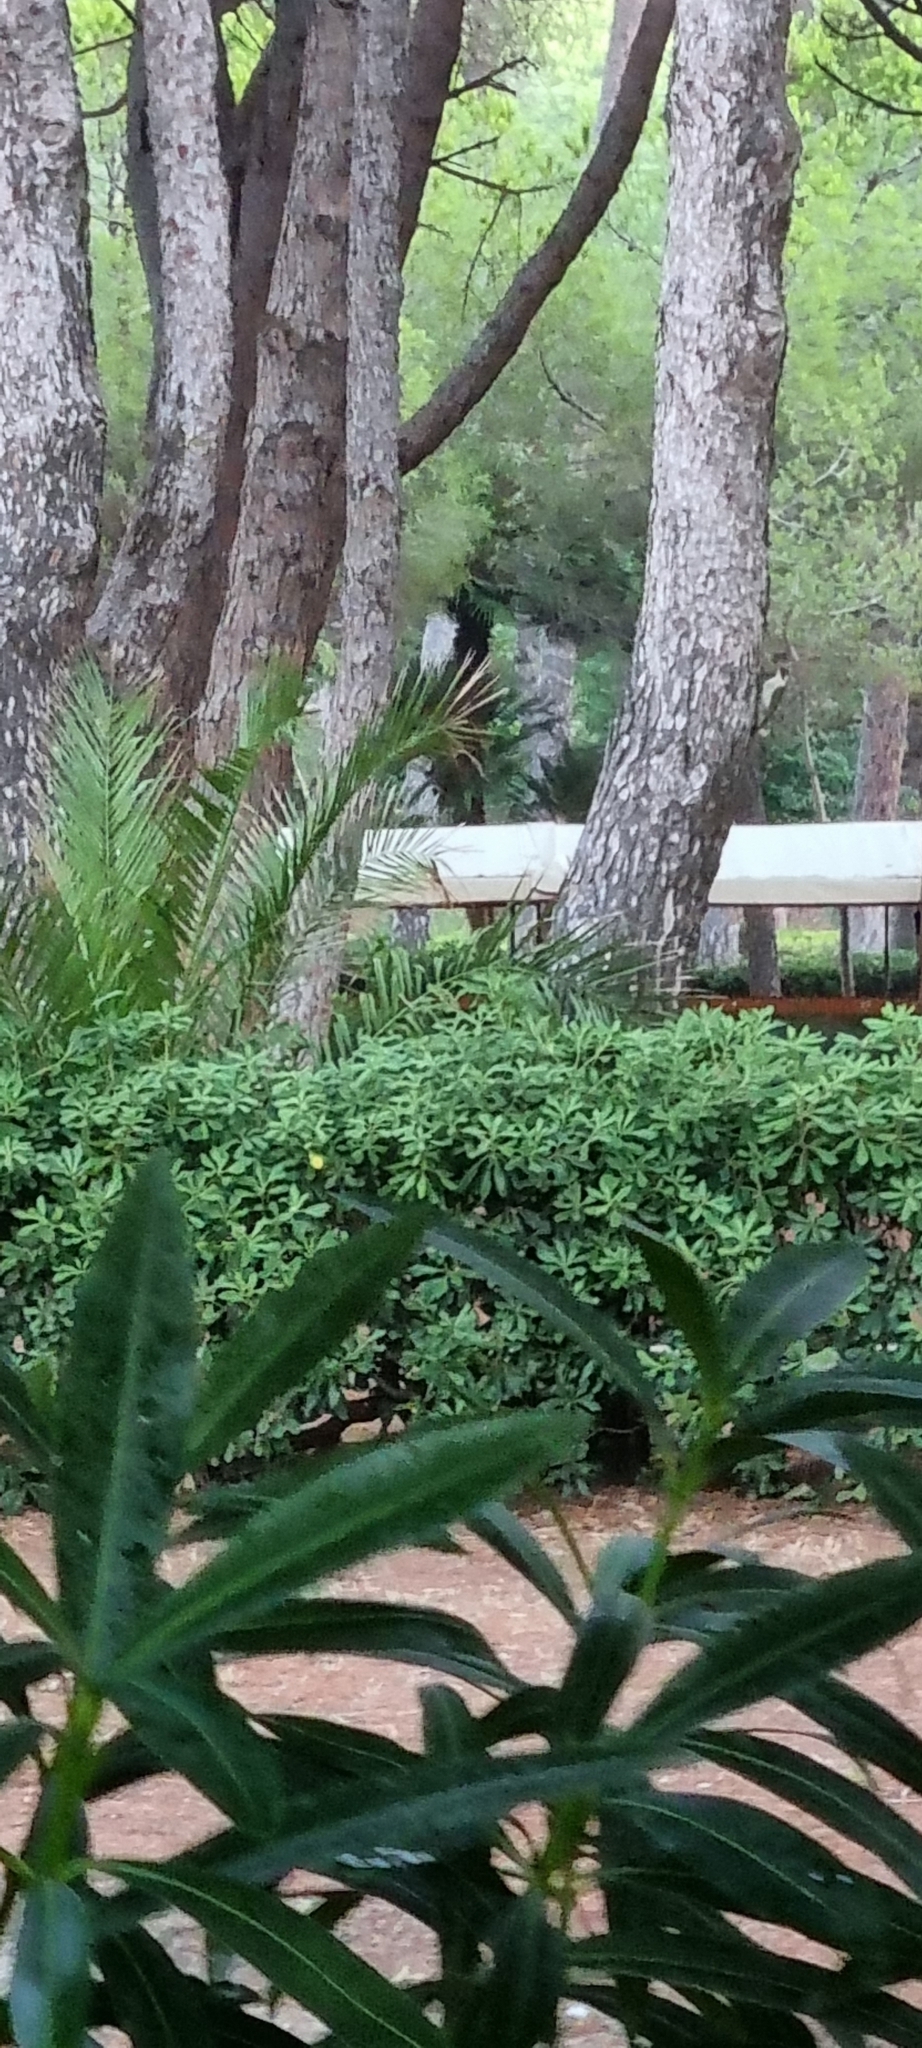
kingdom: Animalia
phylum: Chordata
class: Aves
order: Piciformes
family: Picidae
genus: Picus
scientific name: Picus viridis
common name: European green woodpecker
